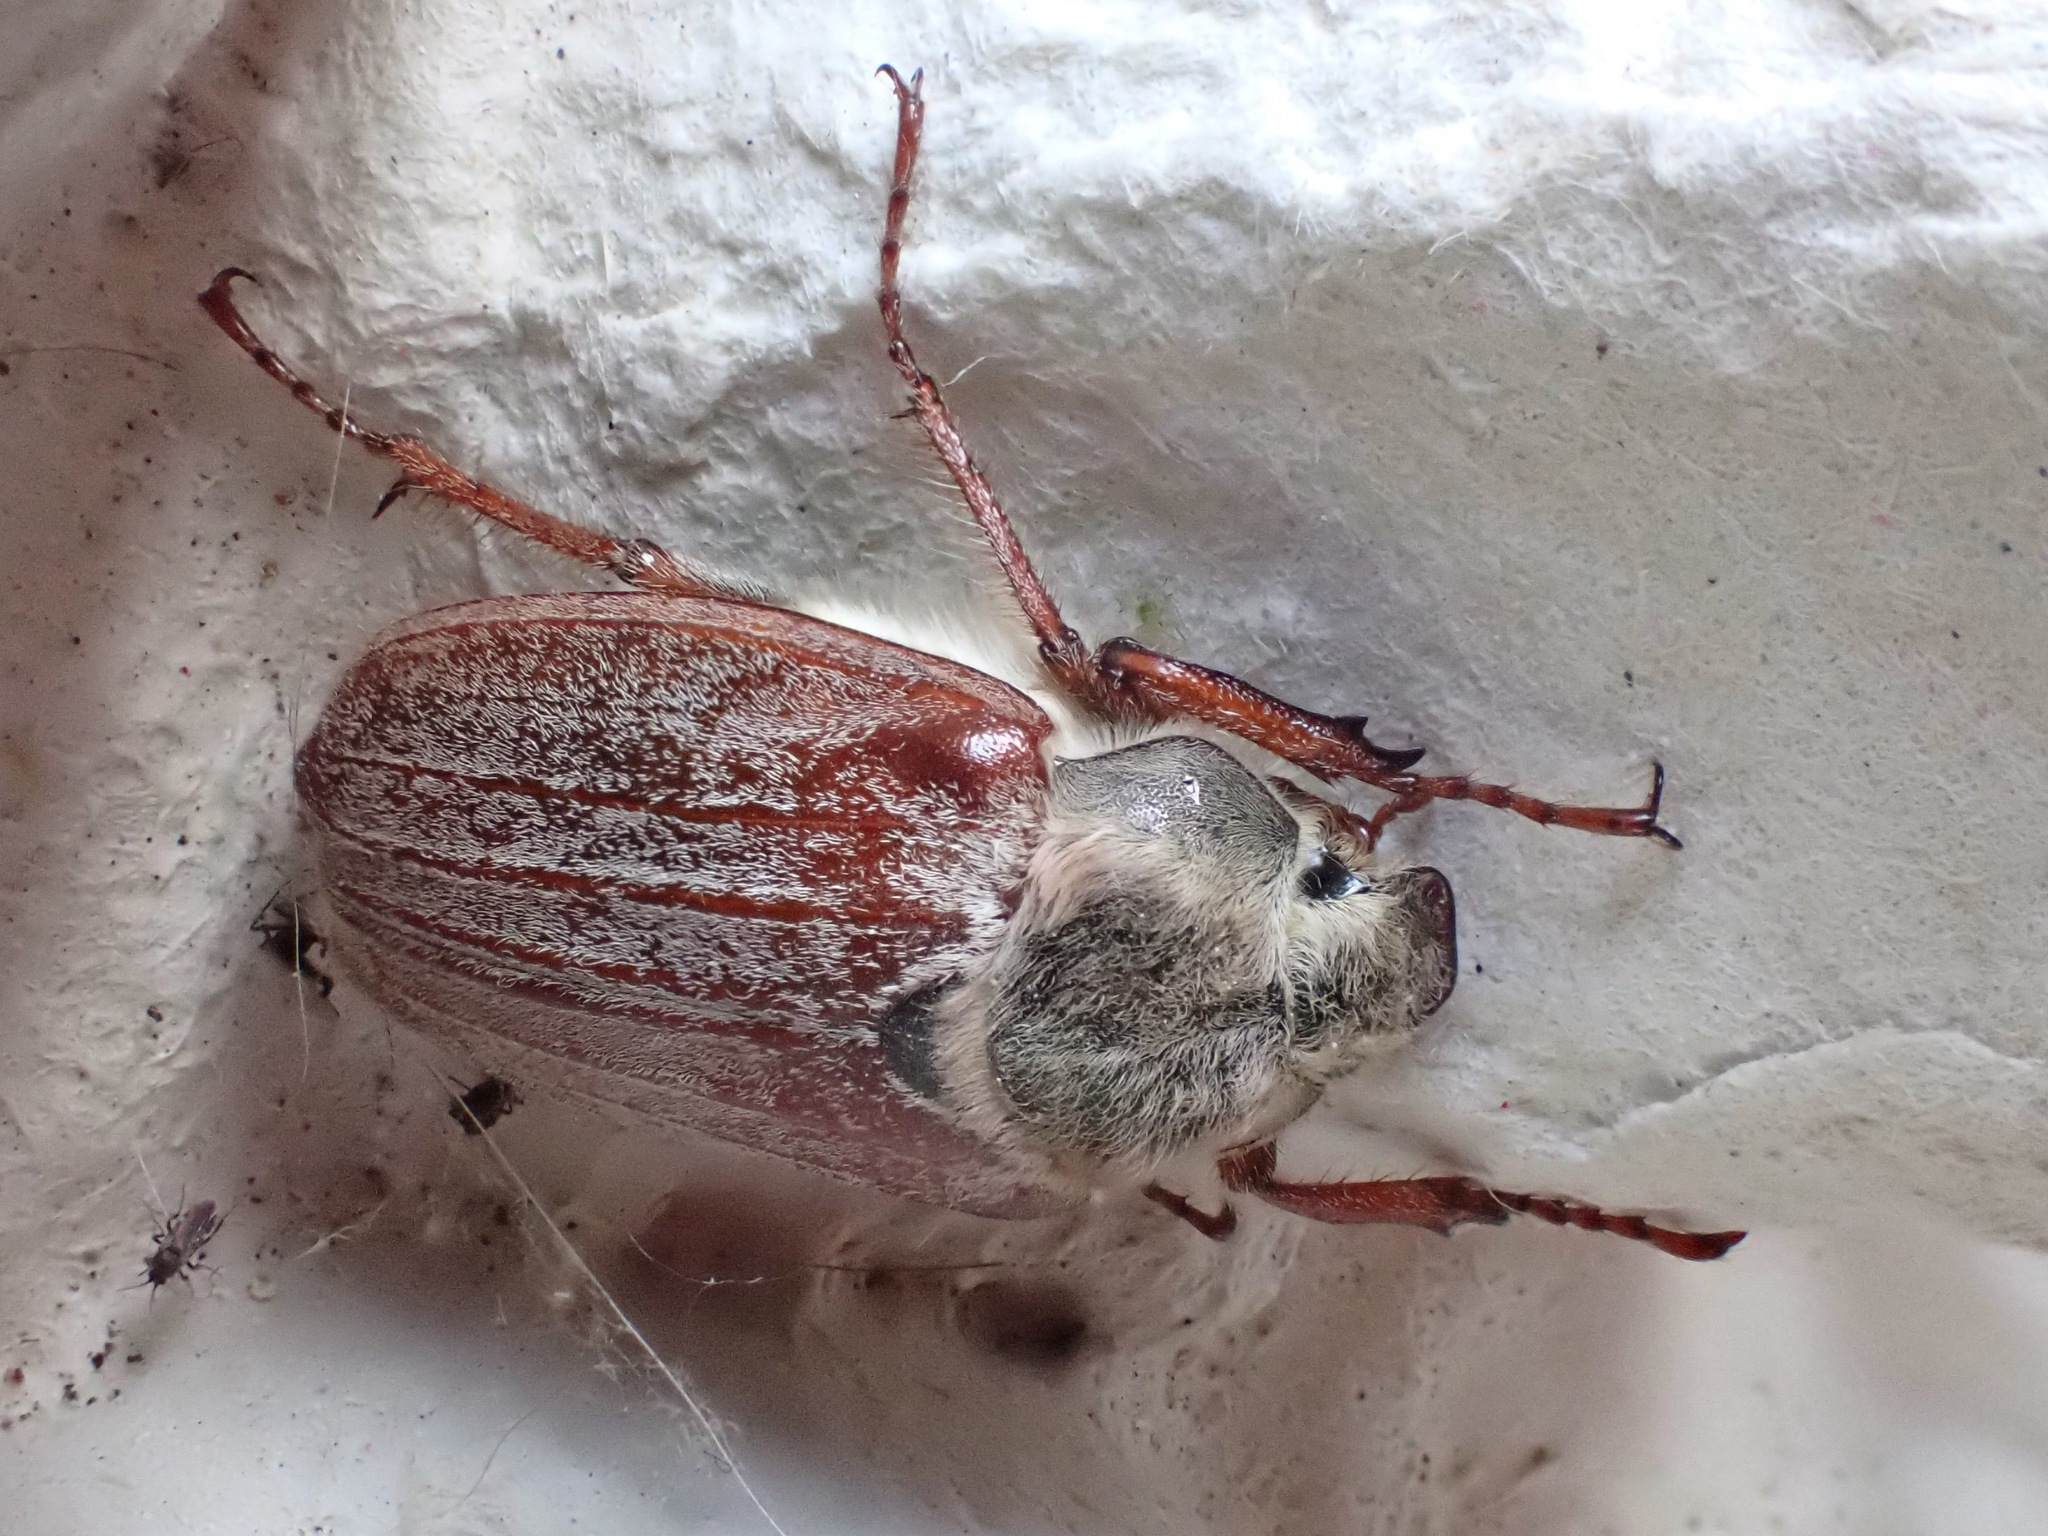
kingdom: Animalia
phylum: Arthropoda
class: Insecta
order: Coleoptera
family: Scarabaeidae
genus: Melolontha
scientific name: Melolontha melolontha
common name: Cockchafer maybeetle
